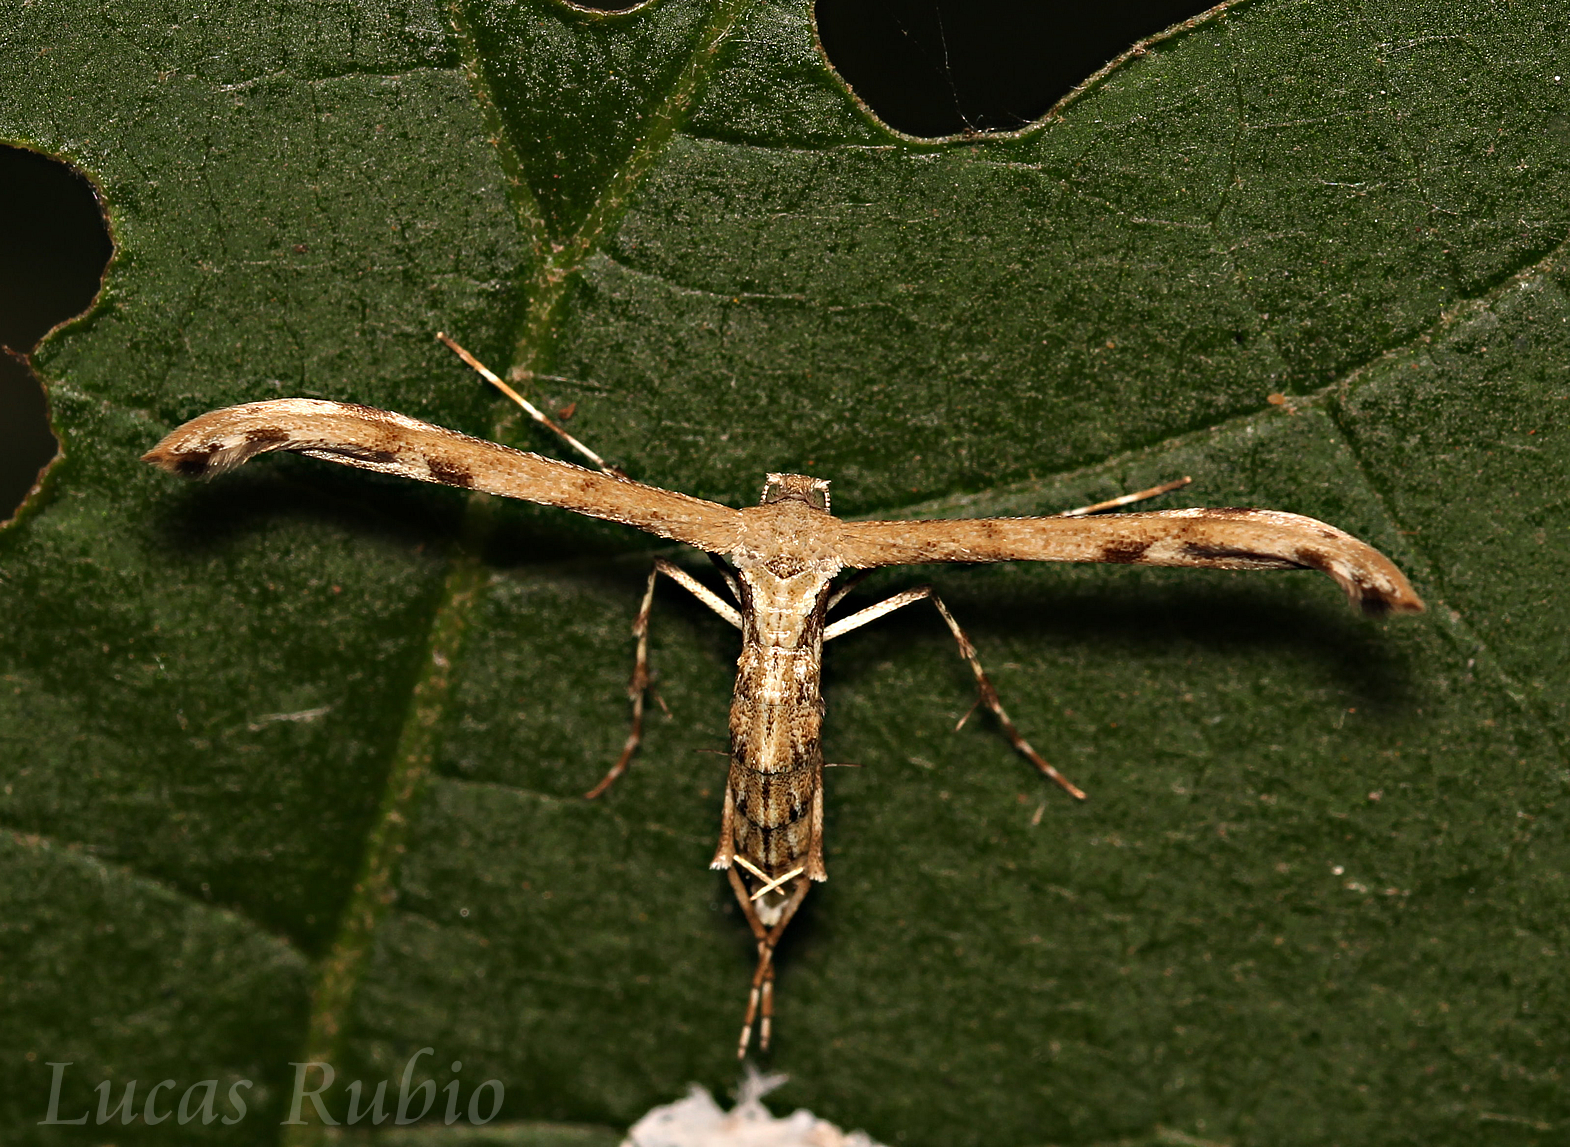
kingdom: Animalia
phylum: Arthropoda
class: Insecta
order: Lepidoptera
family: Pterophoridae
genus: Hellinsia
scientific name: Hellinsia surinamensis
